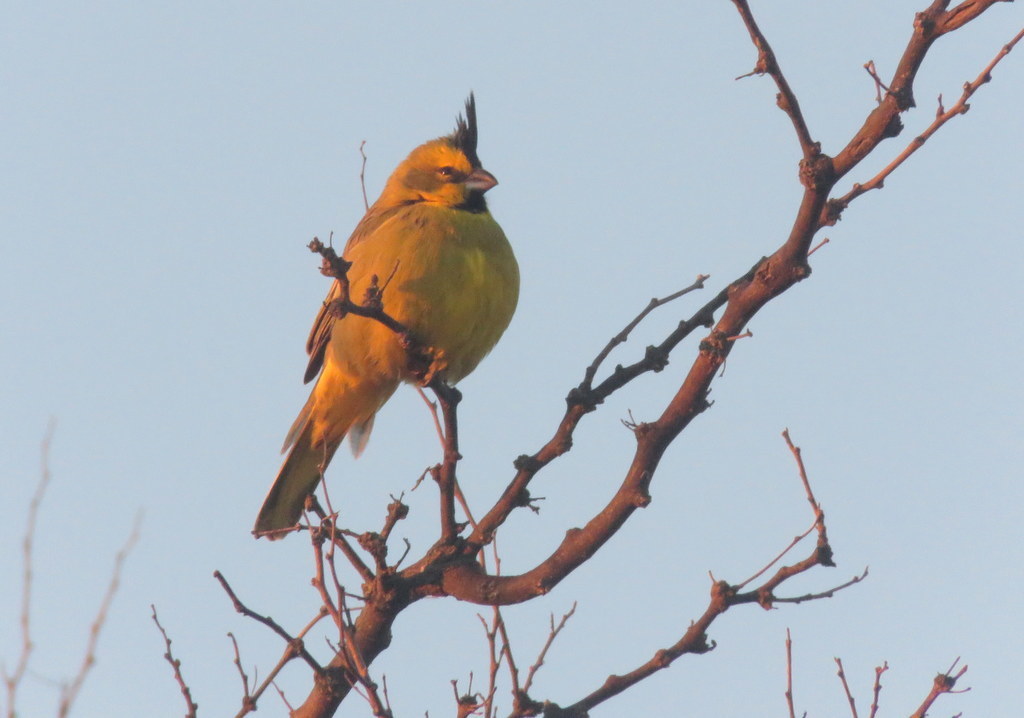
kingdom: Animalia
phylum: Chordata
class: Aves
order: Passeriformes
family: Thraupidae
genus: Gubernatrix
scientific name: Gubernatrix cristata
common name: Yellow cardinal
